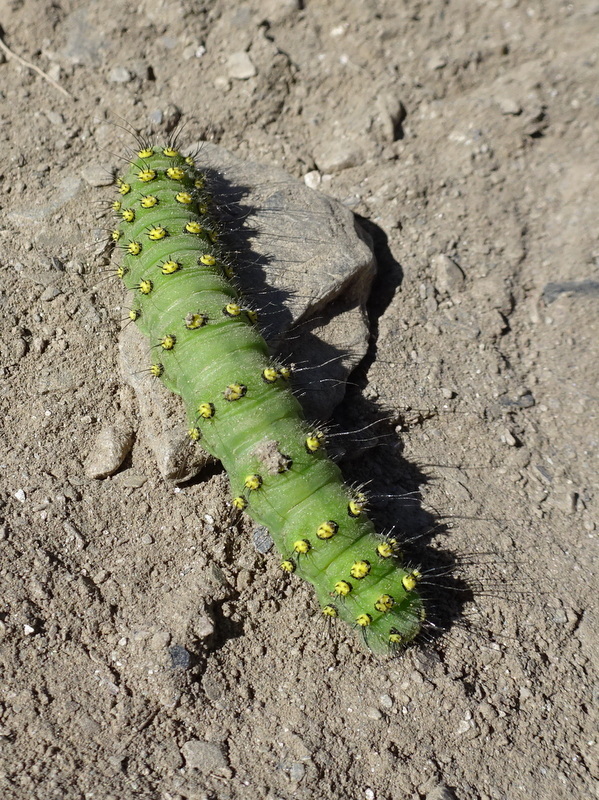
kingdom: Animalia
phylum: Arthropoda
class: Insecta
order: Lepidoptera
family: Saturniidae
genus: Saturnia
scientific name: Saturnia pavonia
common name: Emperor moth
